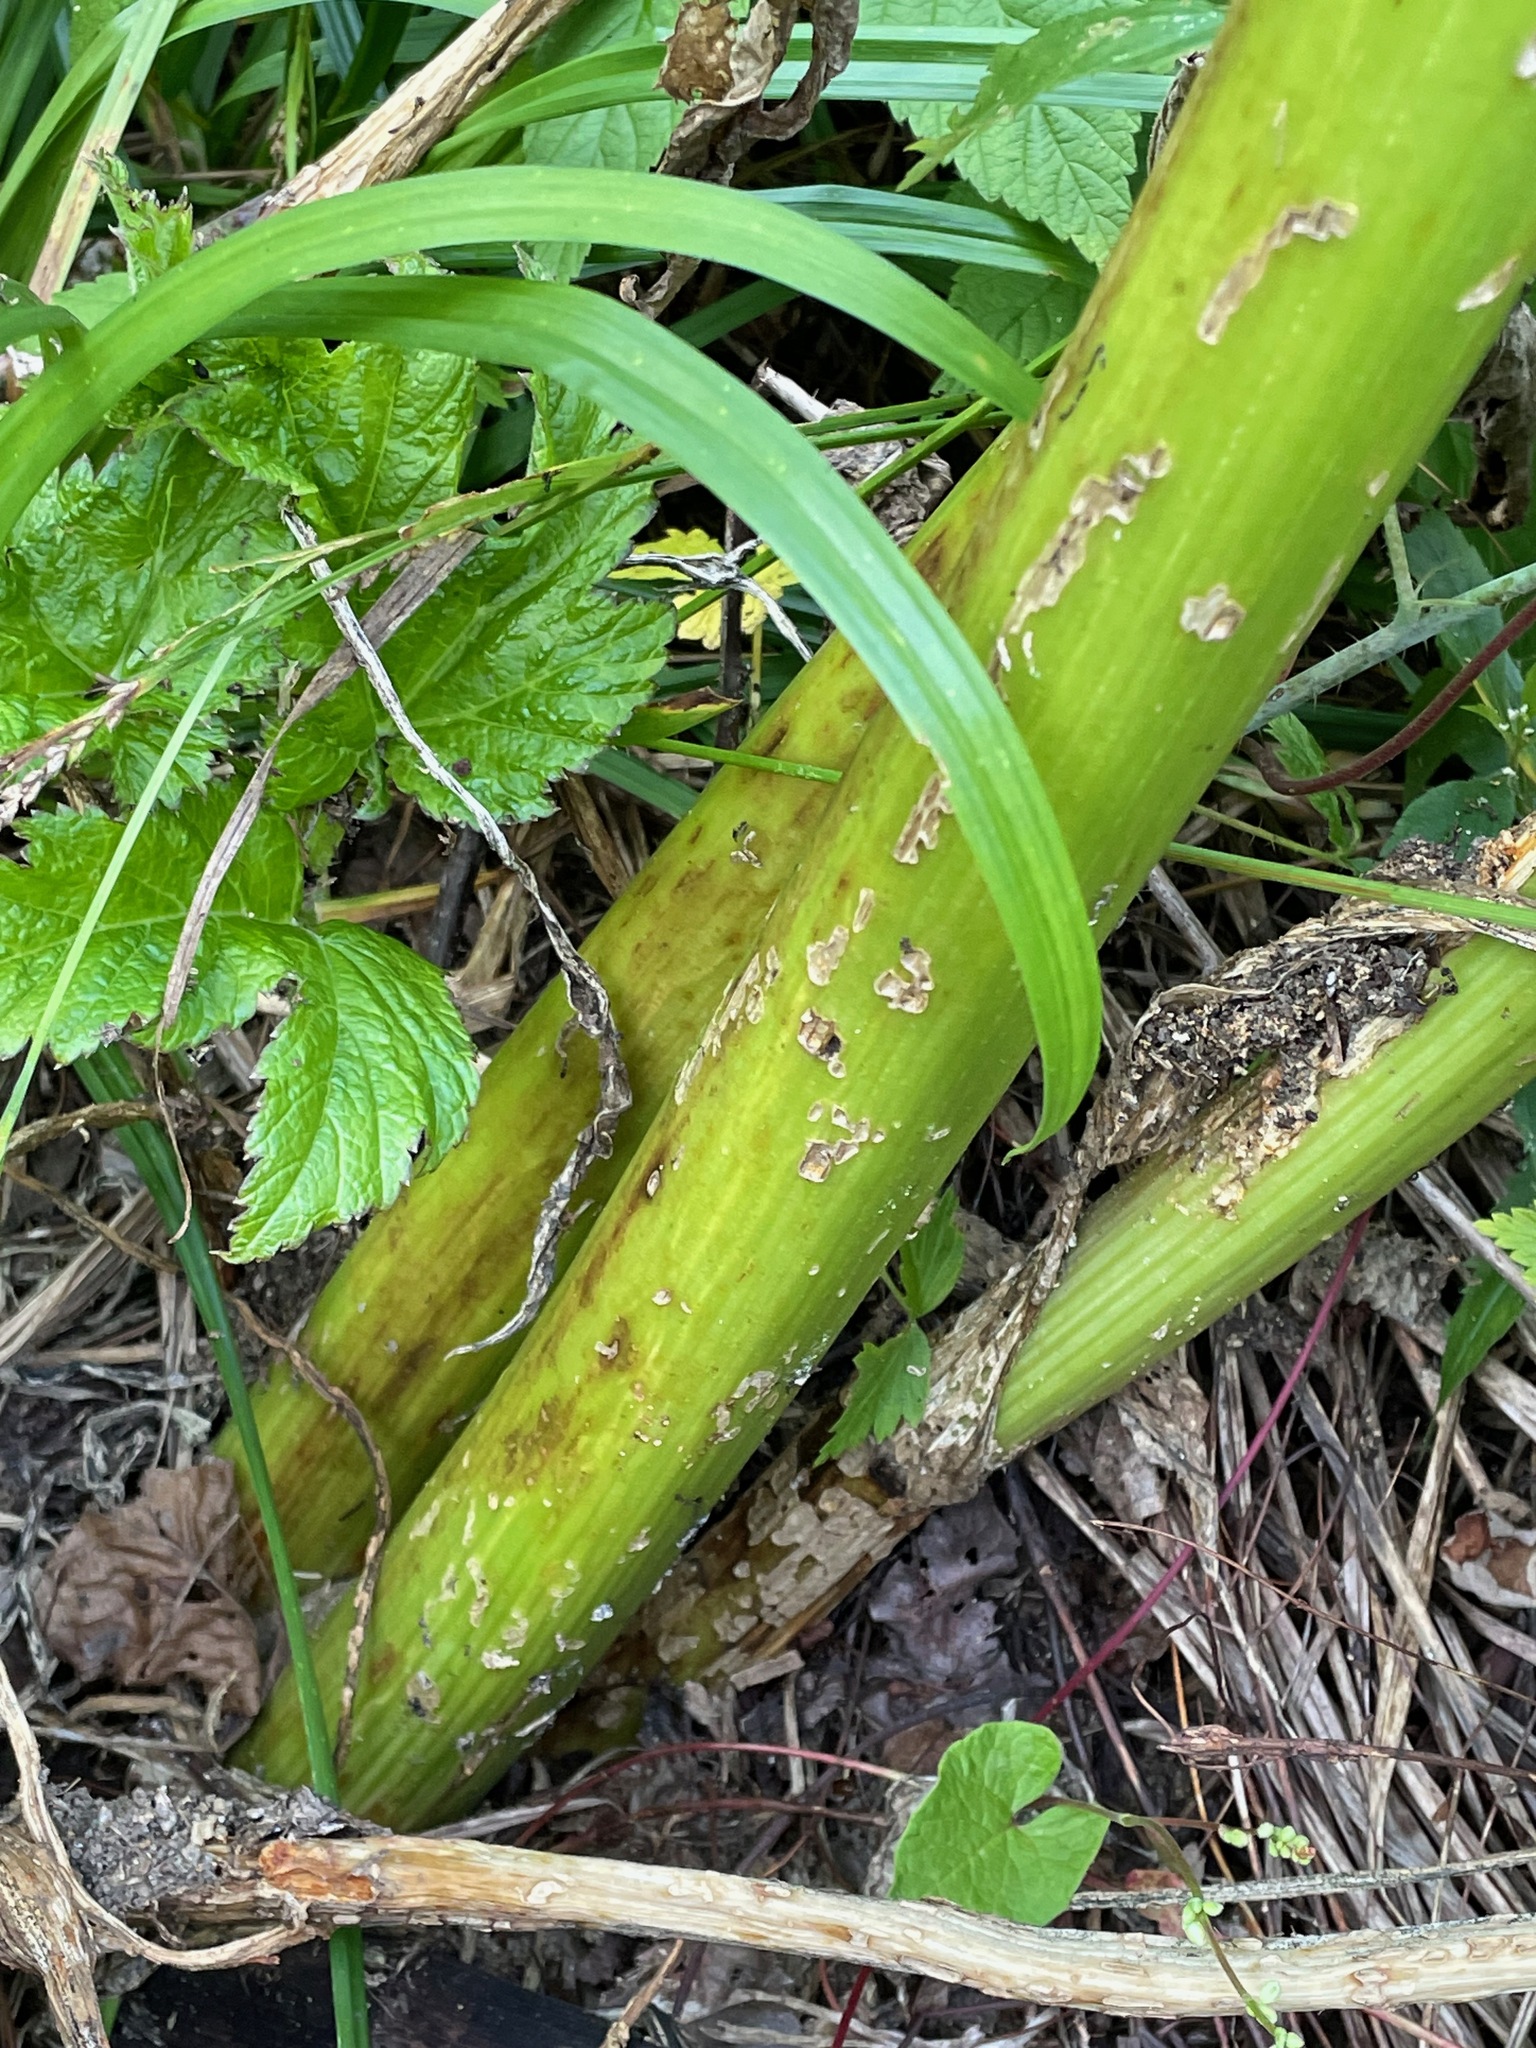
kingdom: Plantae
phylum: Tracheophyta
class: Magnoliopsida
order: Apiales
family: Apiaceae
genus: Heracleum
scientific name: Heracleum maximum
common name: American cow parsnip
